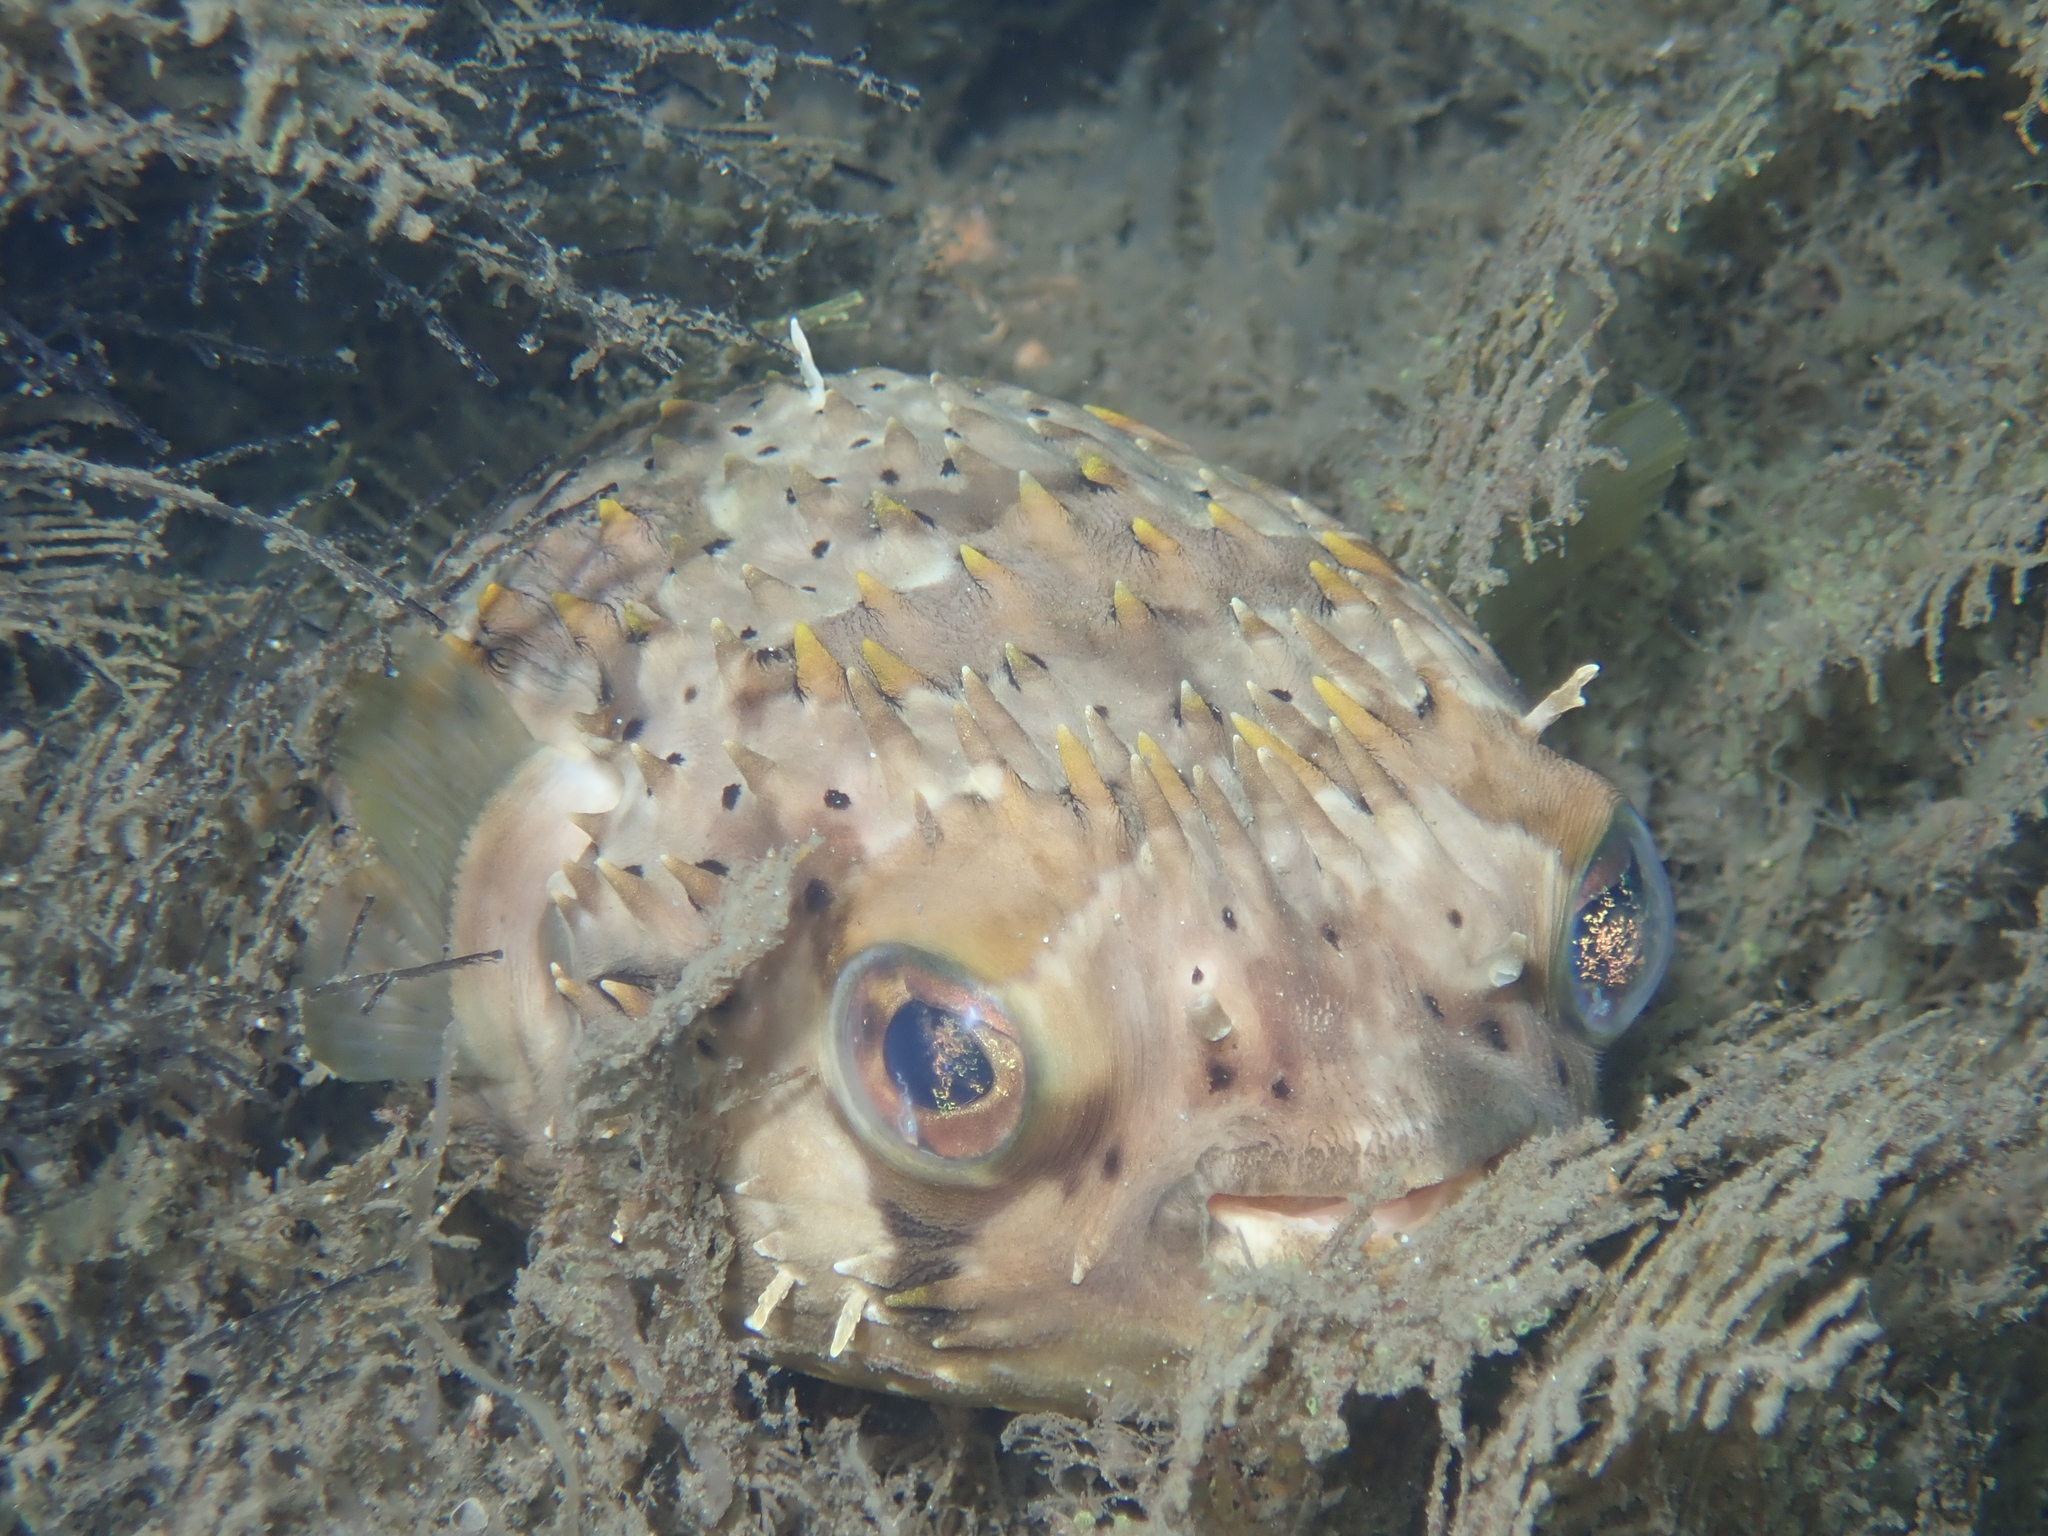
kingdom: Animalia
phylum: Chordata
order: Tetraodontiformes
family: Diodontidae
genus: Diodon
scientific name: Diodon holocanthus
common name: Balloonfish
